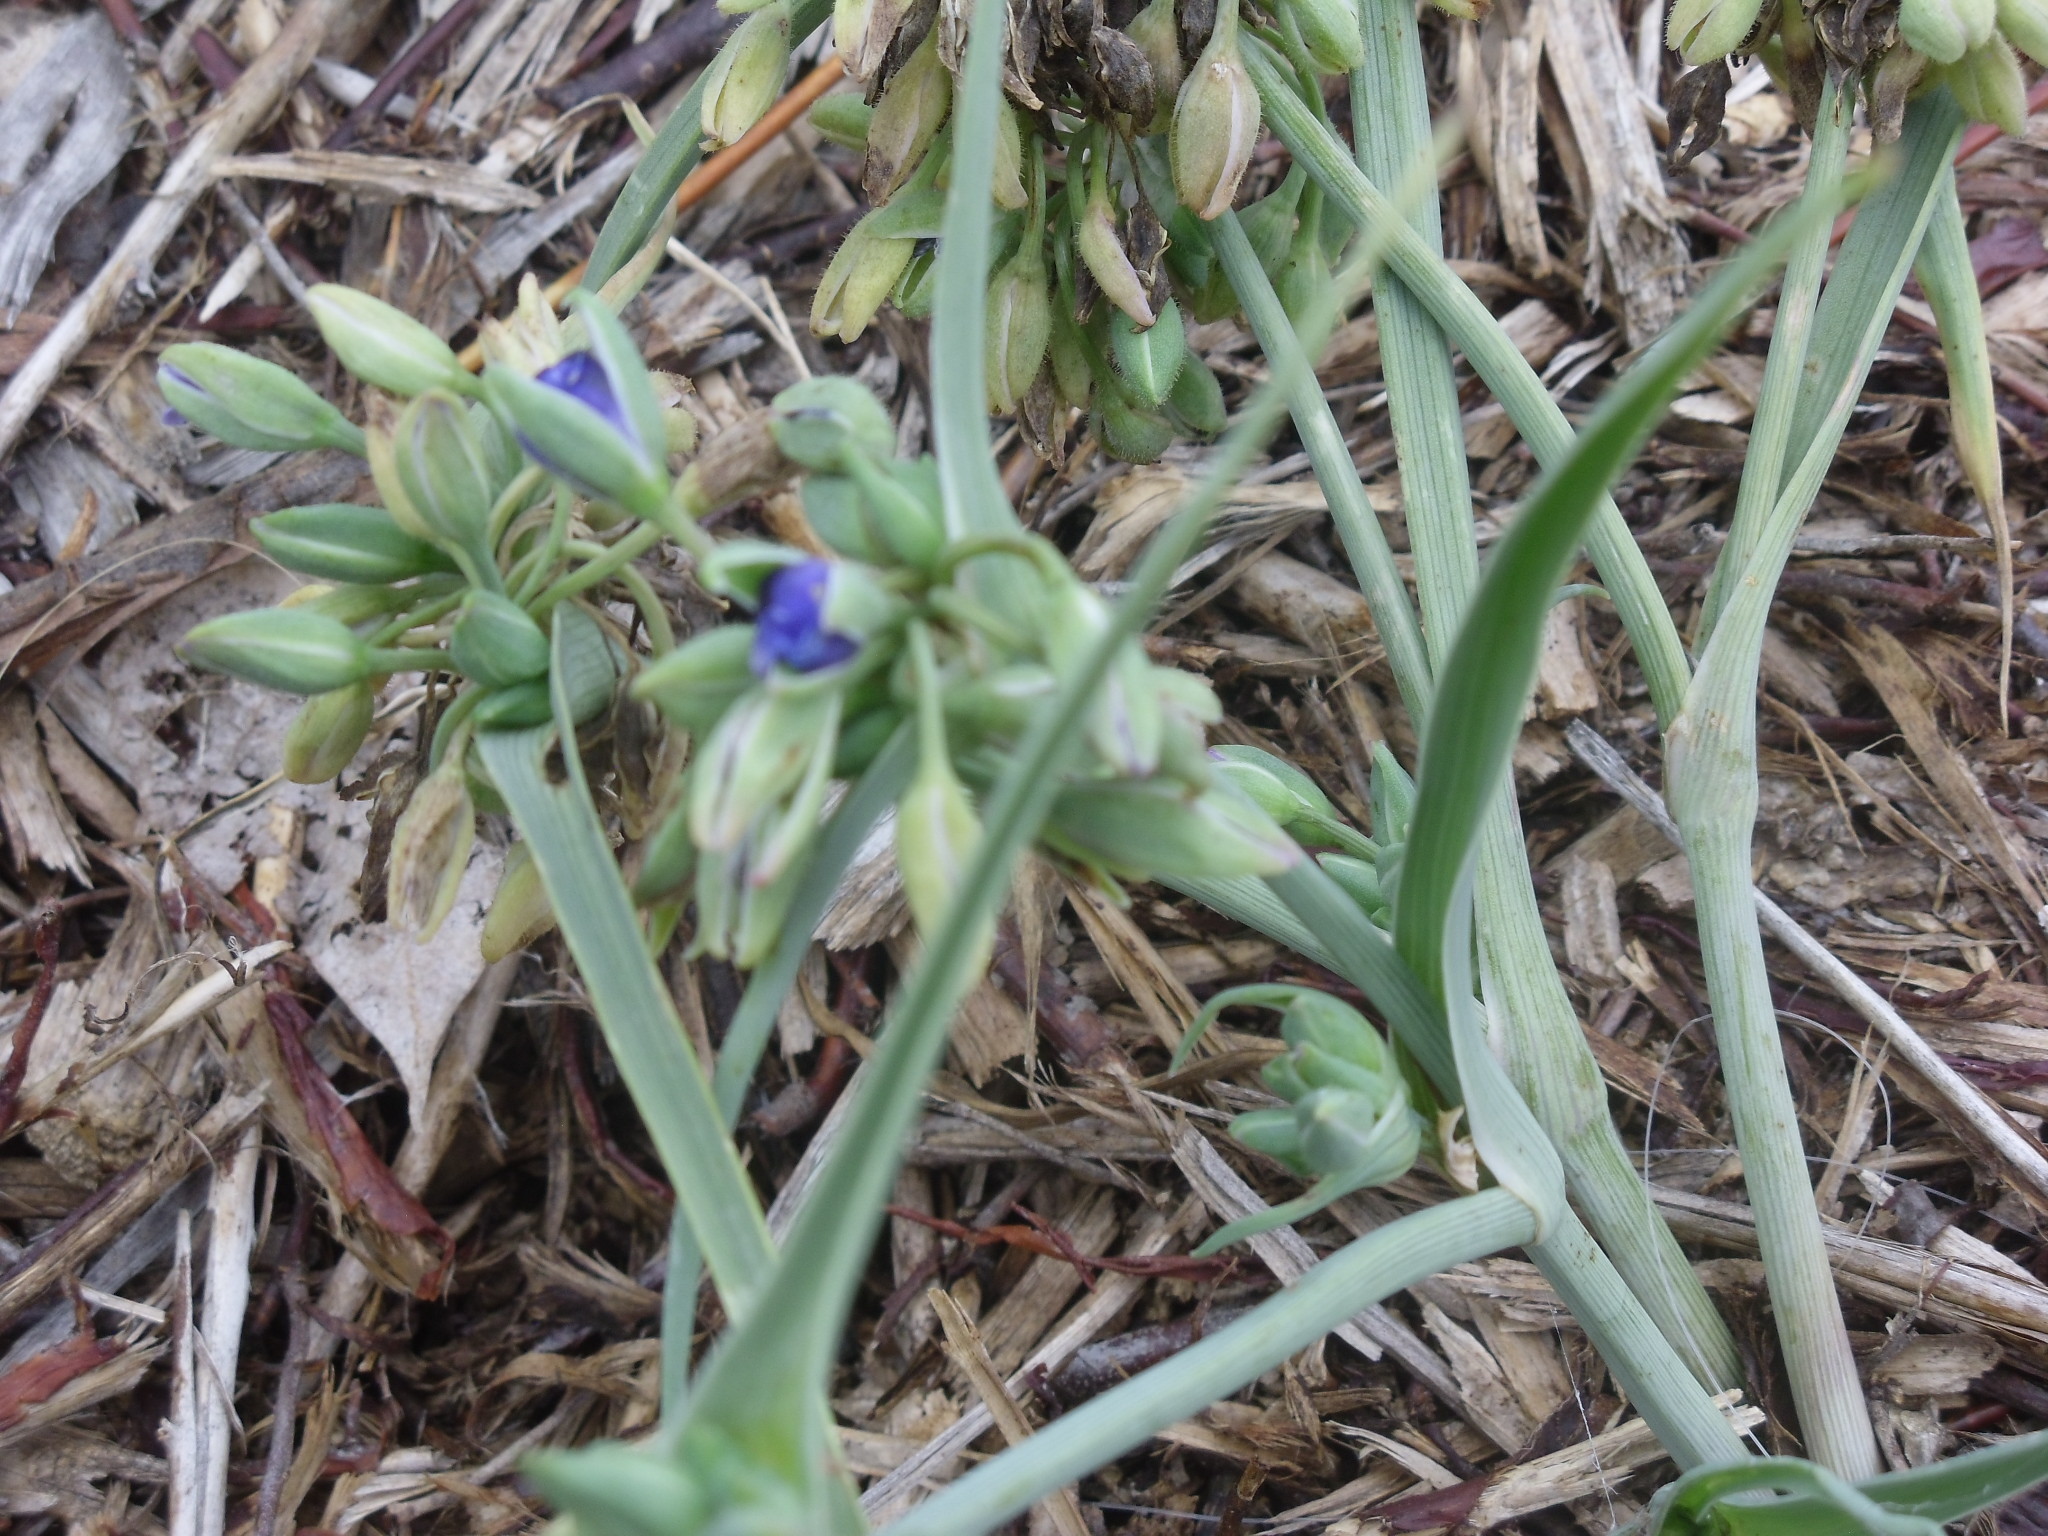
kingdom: Plantae
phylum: Tracheophyta
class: Liliopsida
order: Commelinales
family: Commelinaceae
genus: Tradescantia
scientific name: Tradescantia occidentalis
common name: Prairie spiderwort
